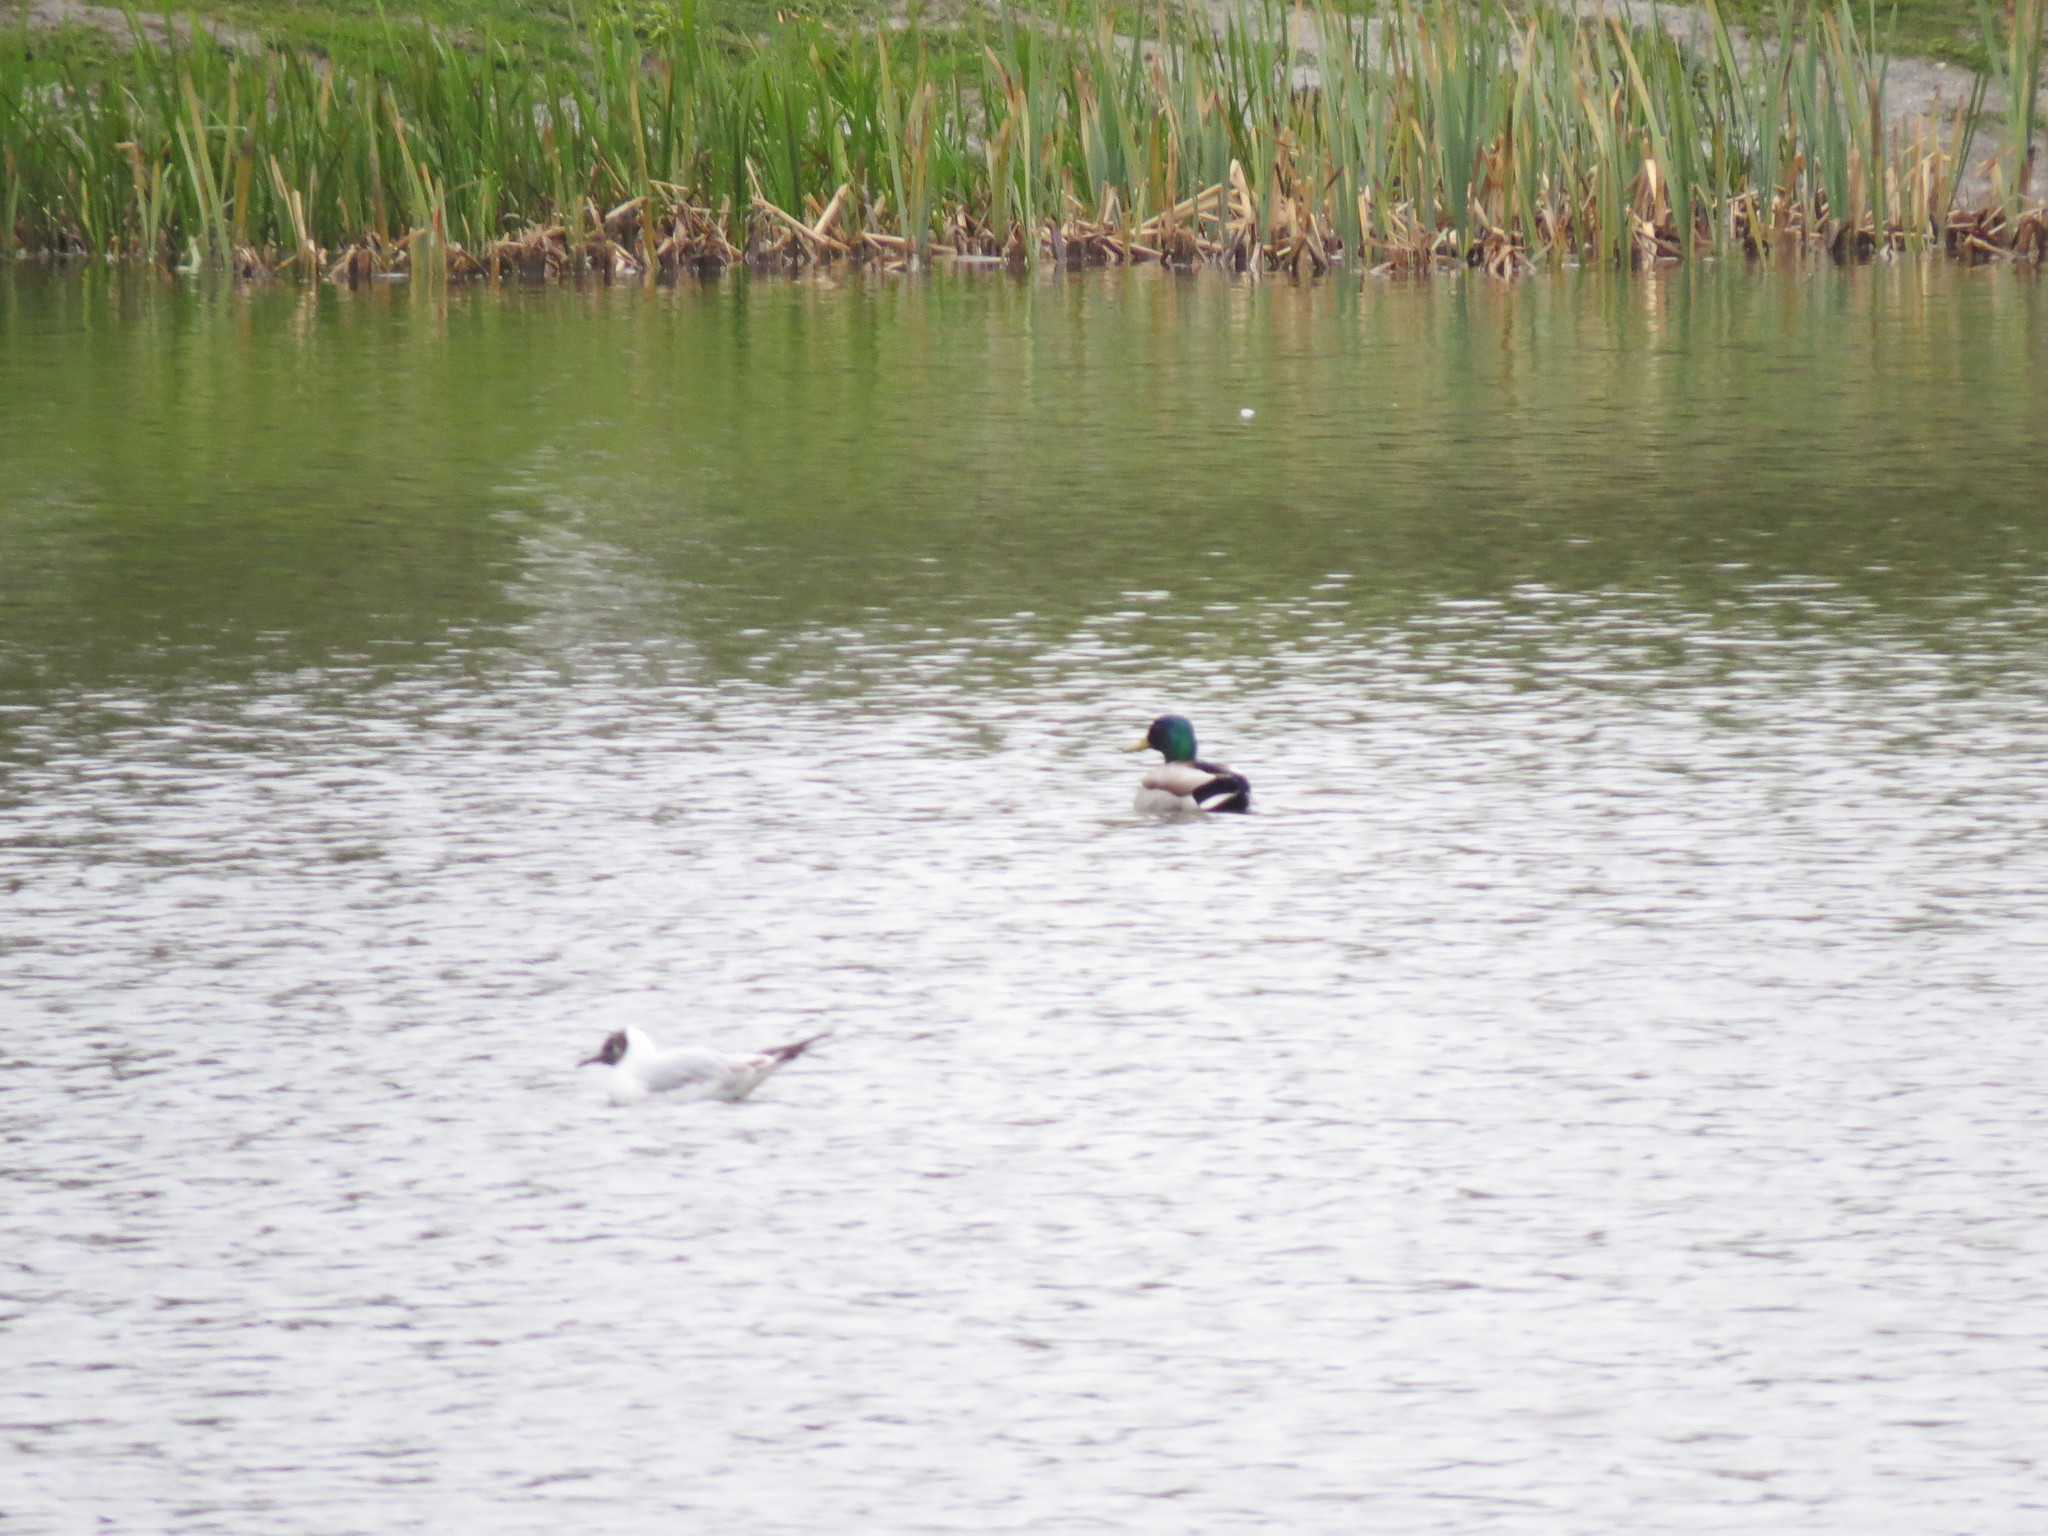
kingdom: Animalia
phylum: Chordata
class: Aves
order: Anseriformes
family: Anatidae
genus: Anas
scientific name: Anas platyrhynchos
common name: Mallard
